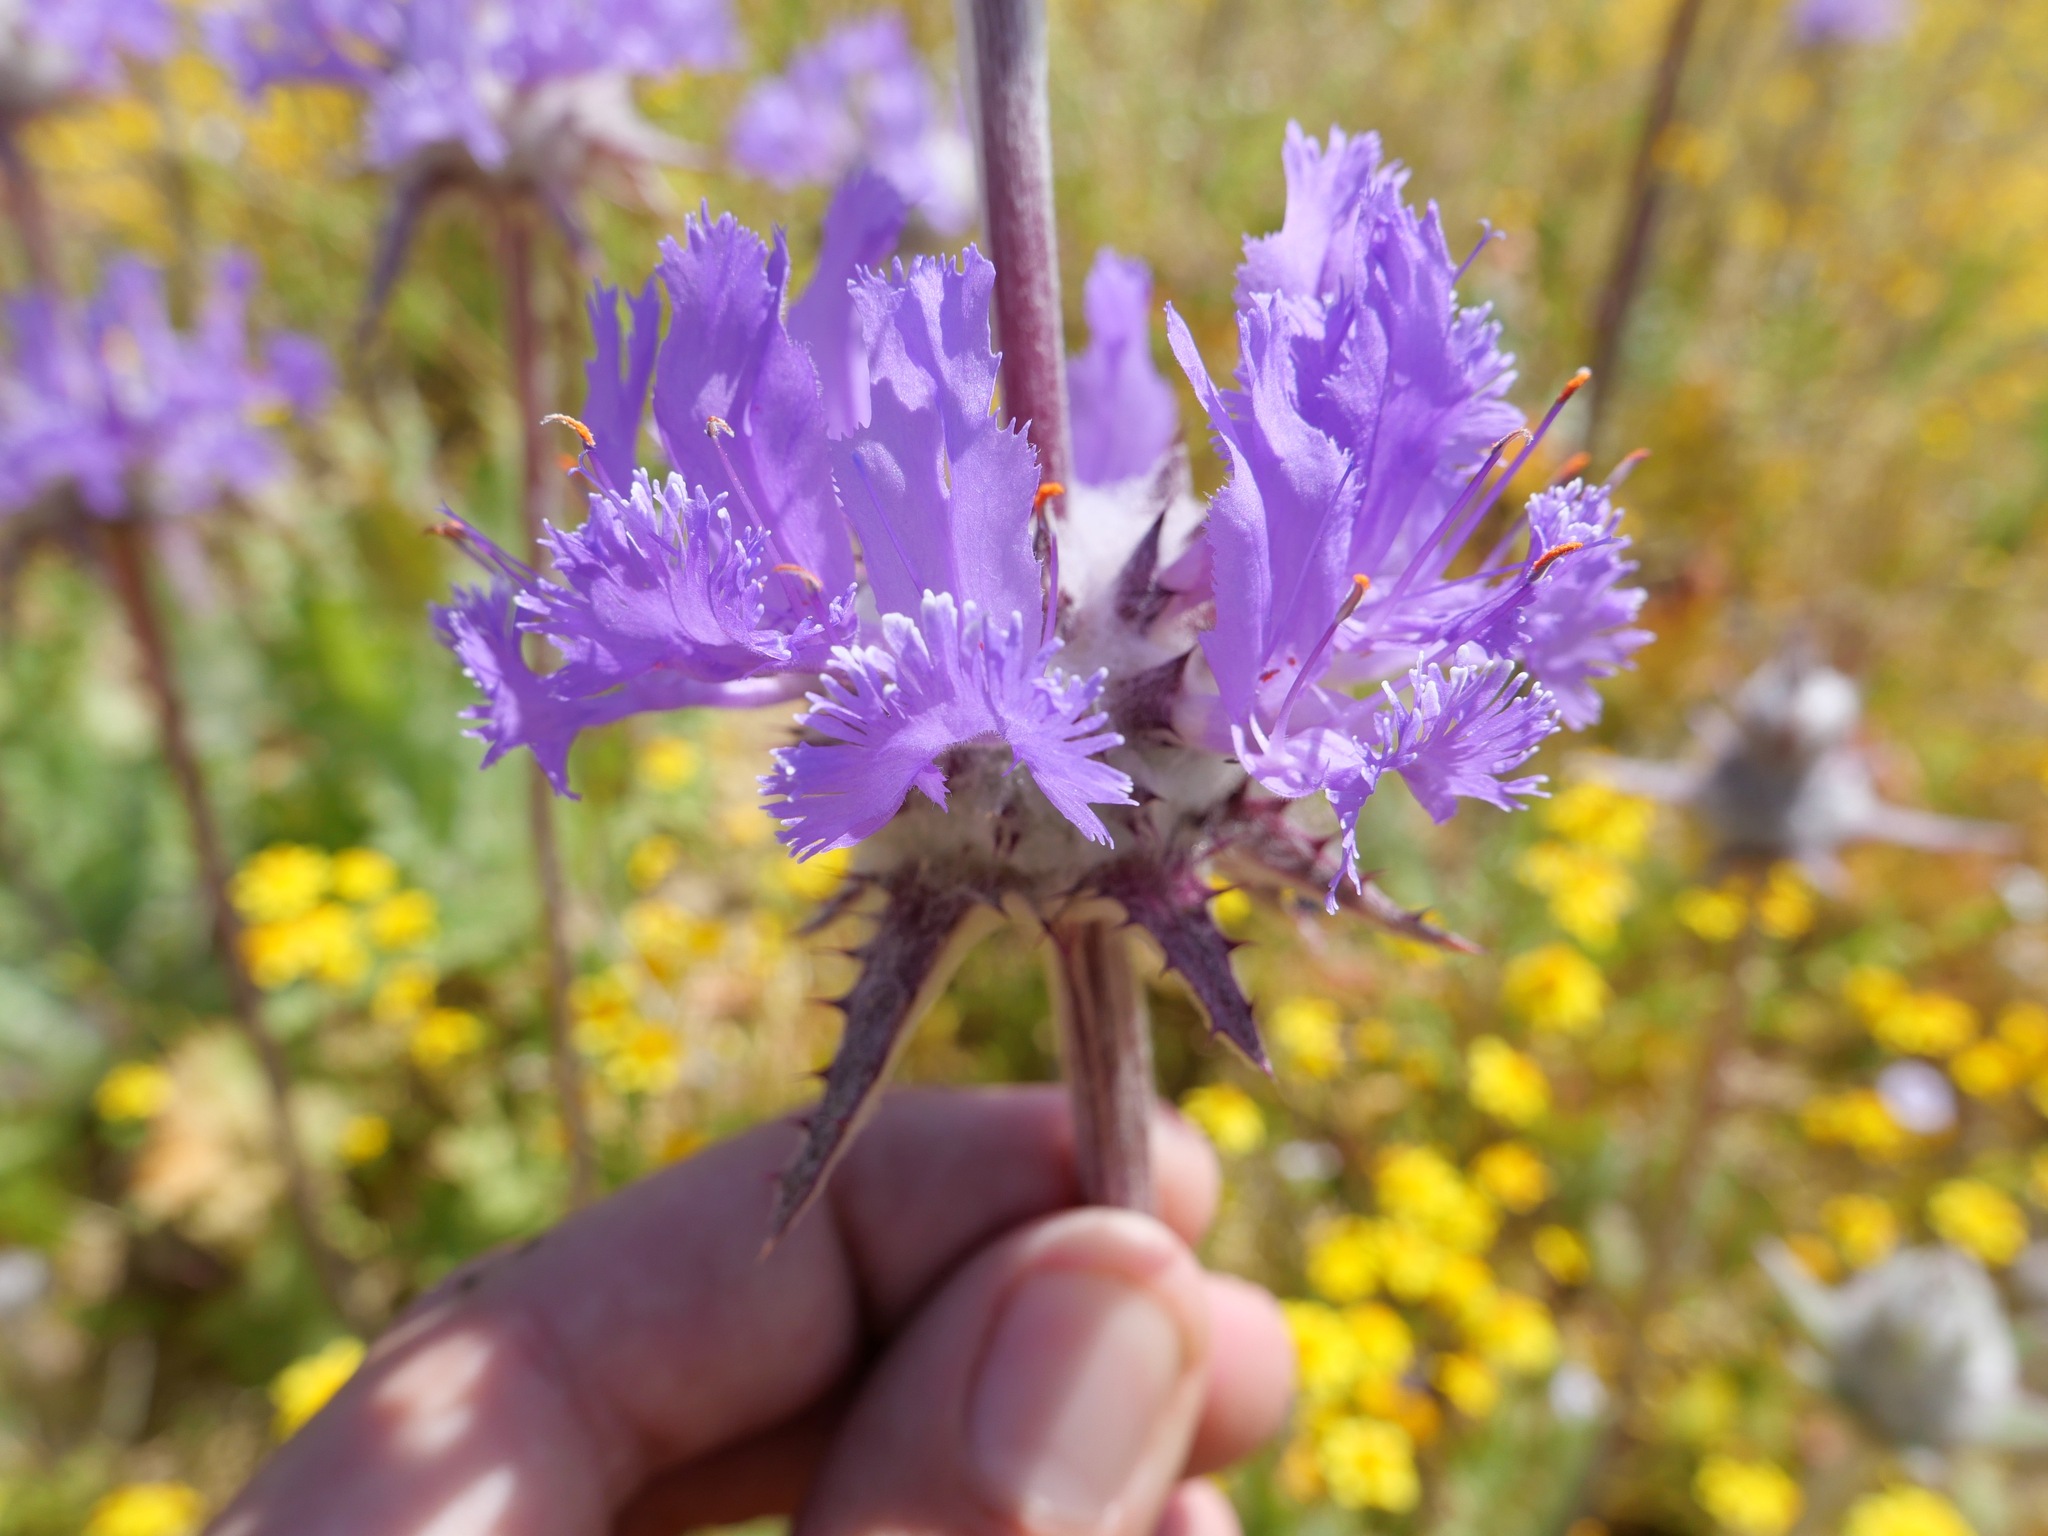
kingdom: Plantae
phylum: Tracheophyta
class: Magnoliopsida
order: Lamiales
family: Lamiaceae
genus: Salvia
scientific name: Salvia carduacea
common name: Thistle sage
